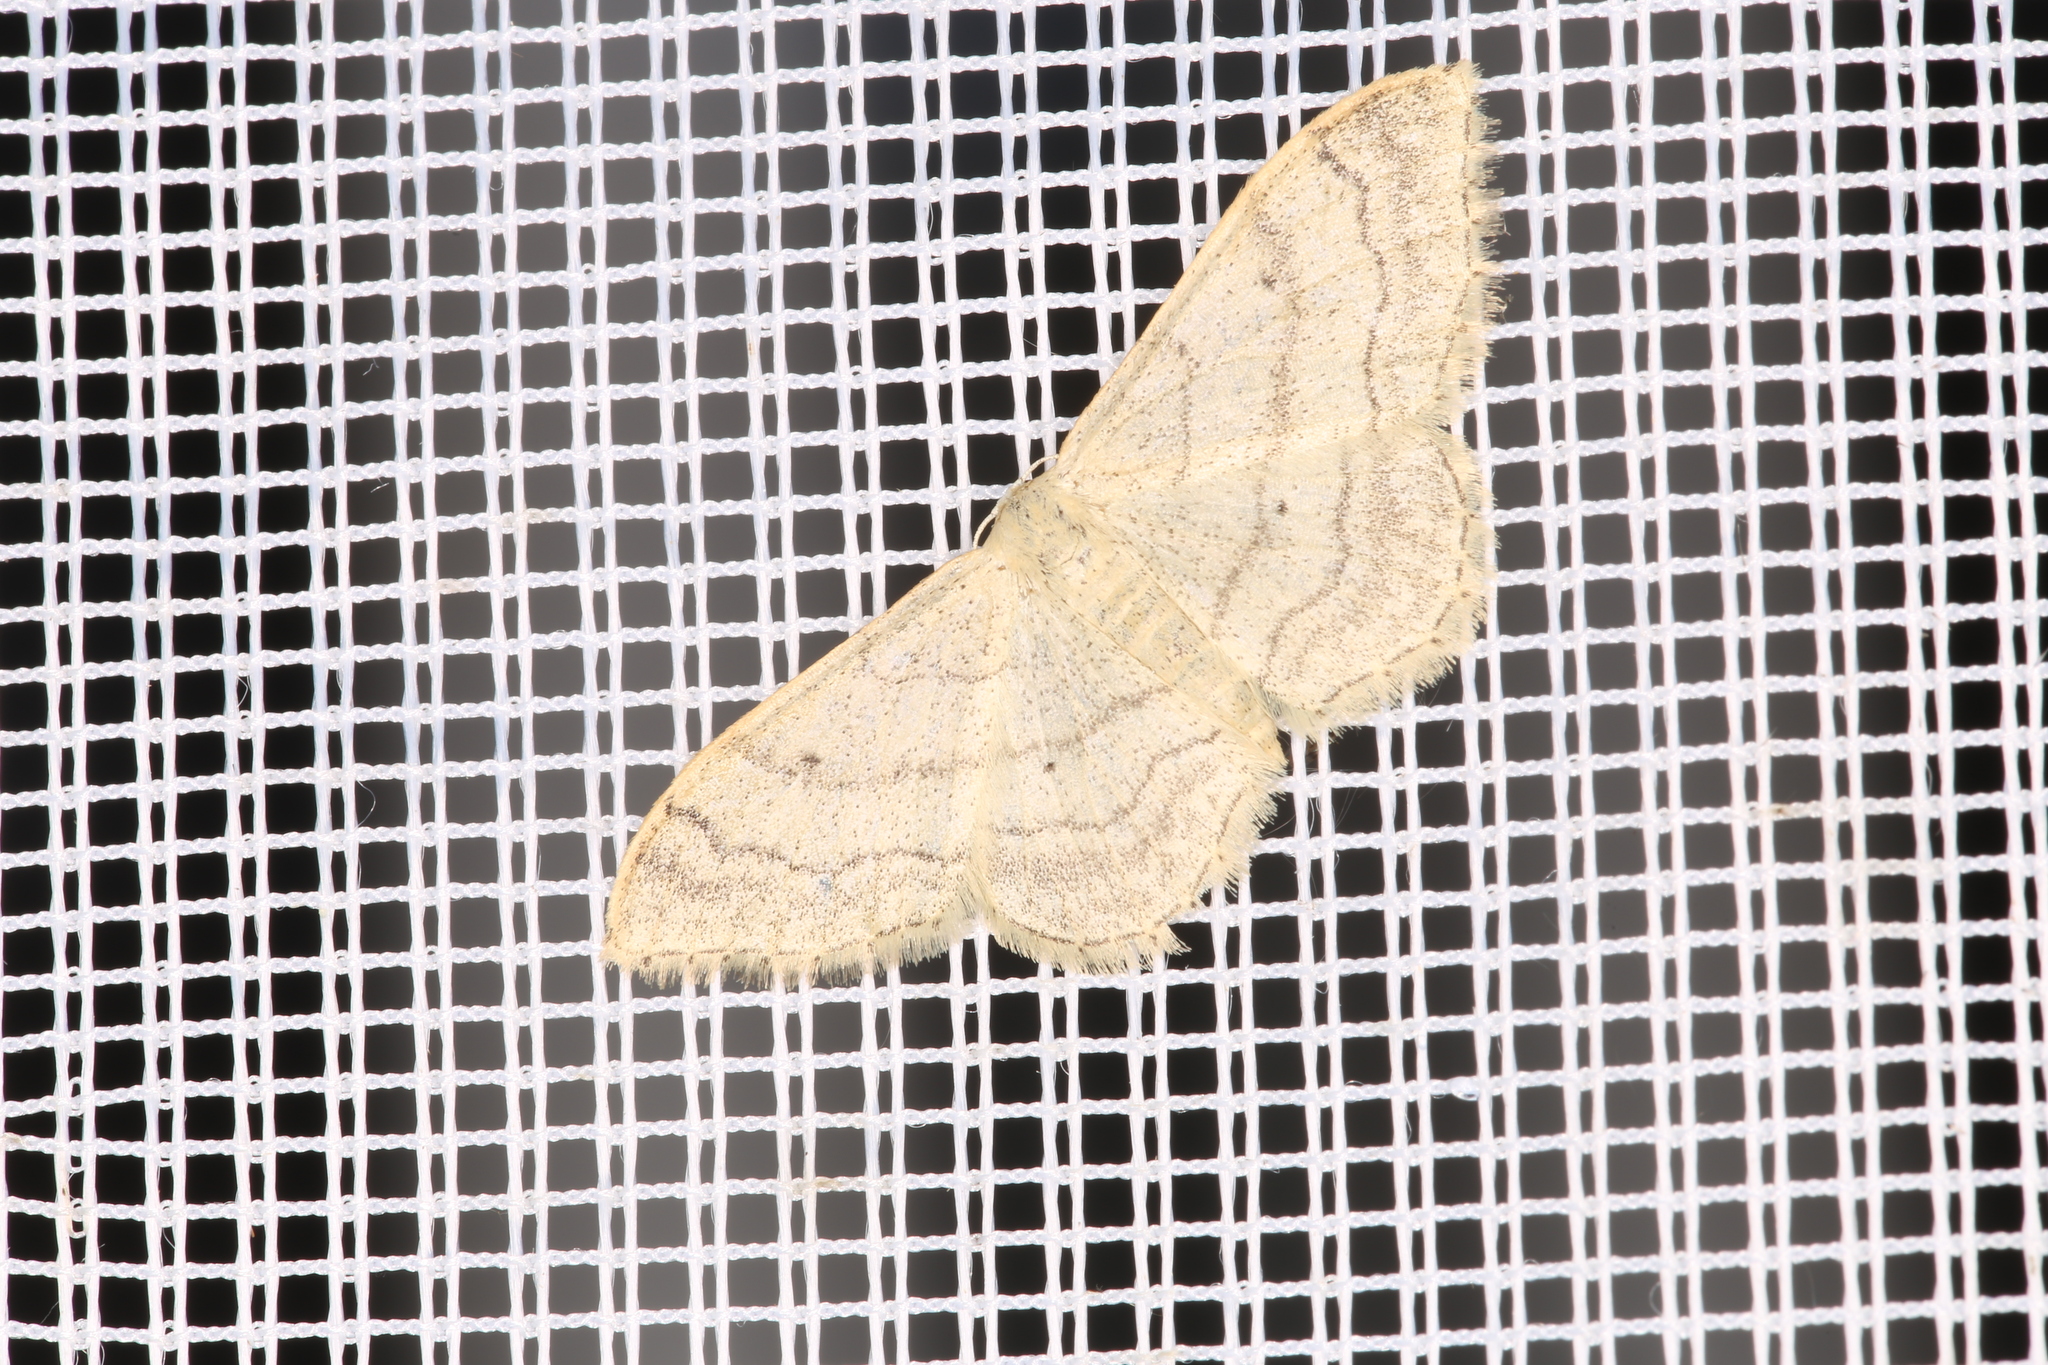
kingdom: Animalia
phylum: Arthropoda
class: Insecta
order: Lepidoptera
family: Geometridae
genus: Idaea
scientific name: Idaea aversata
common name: Riband wave
